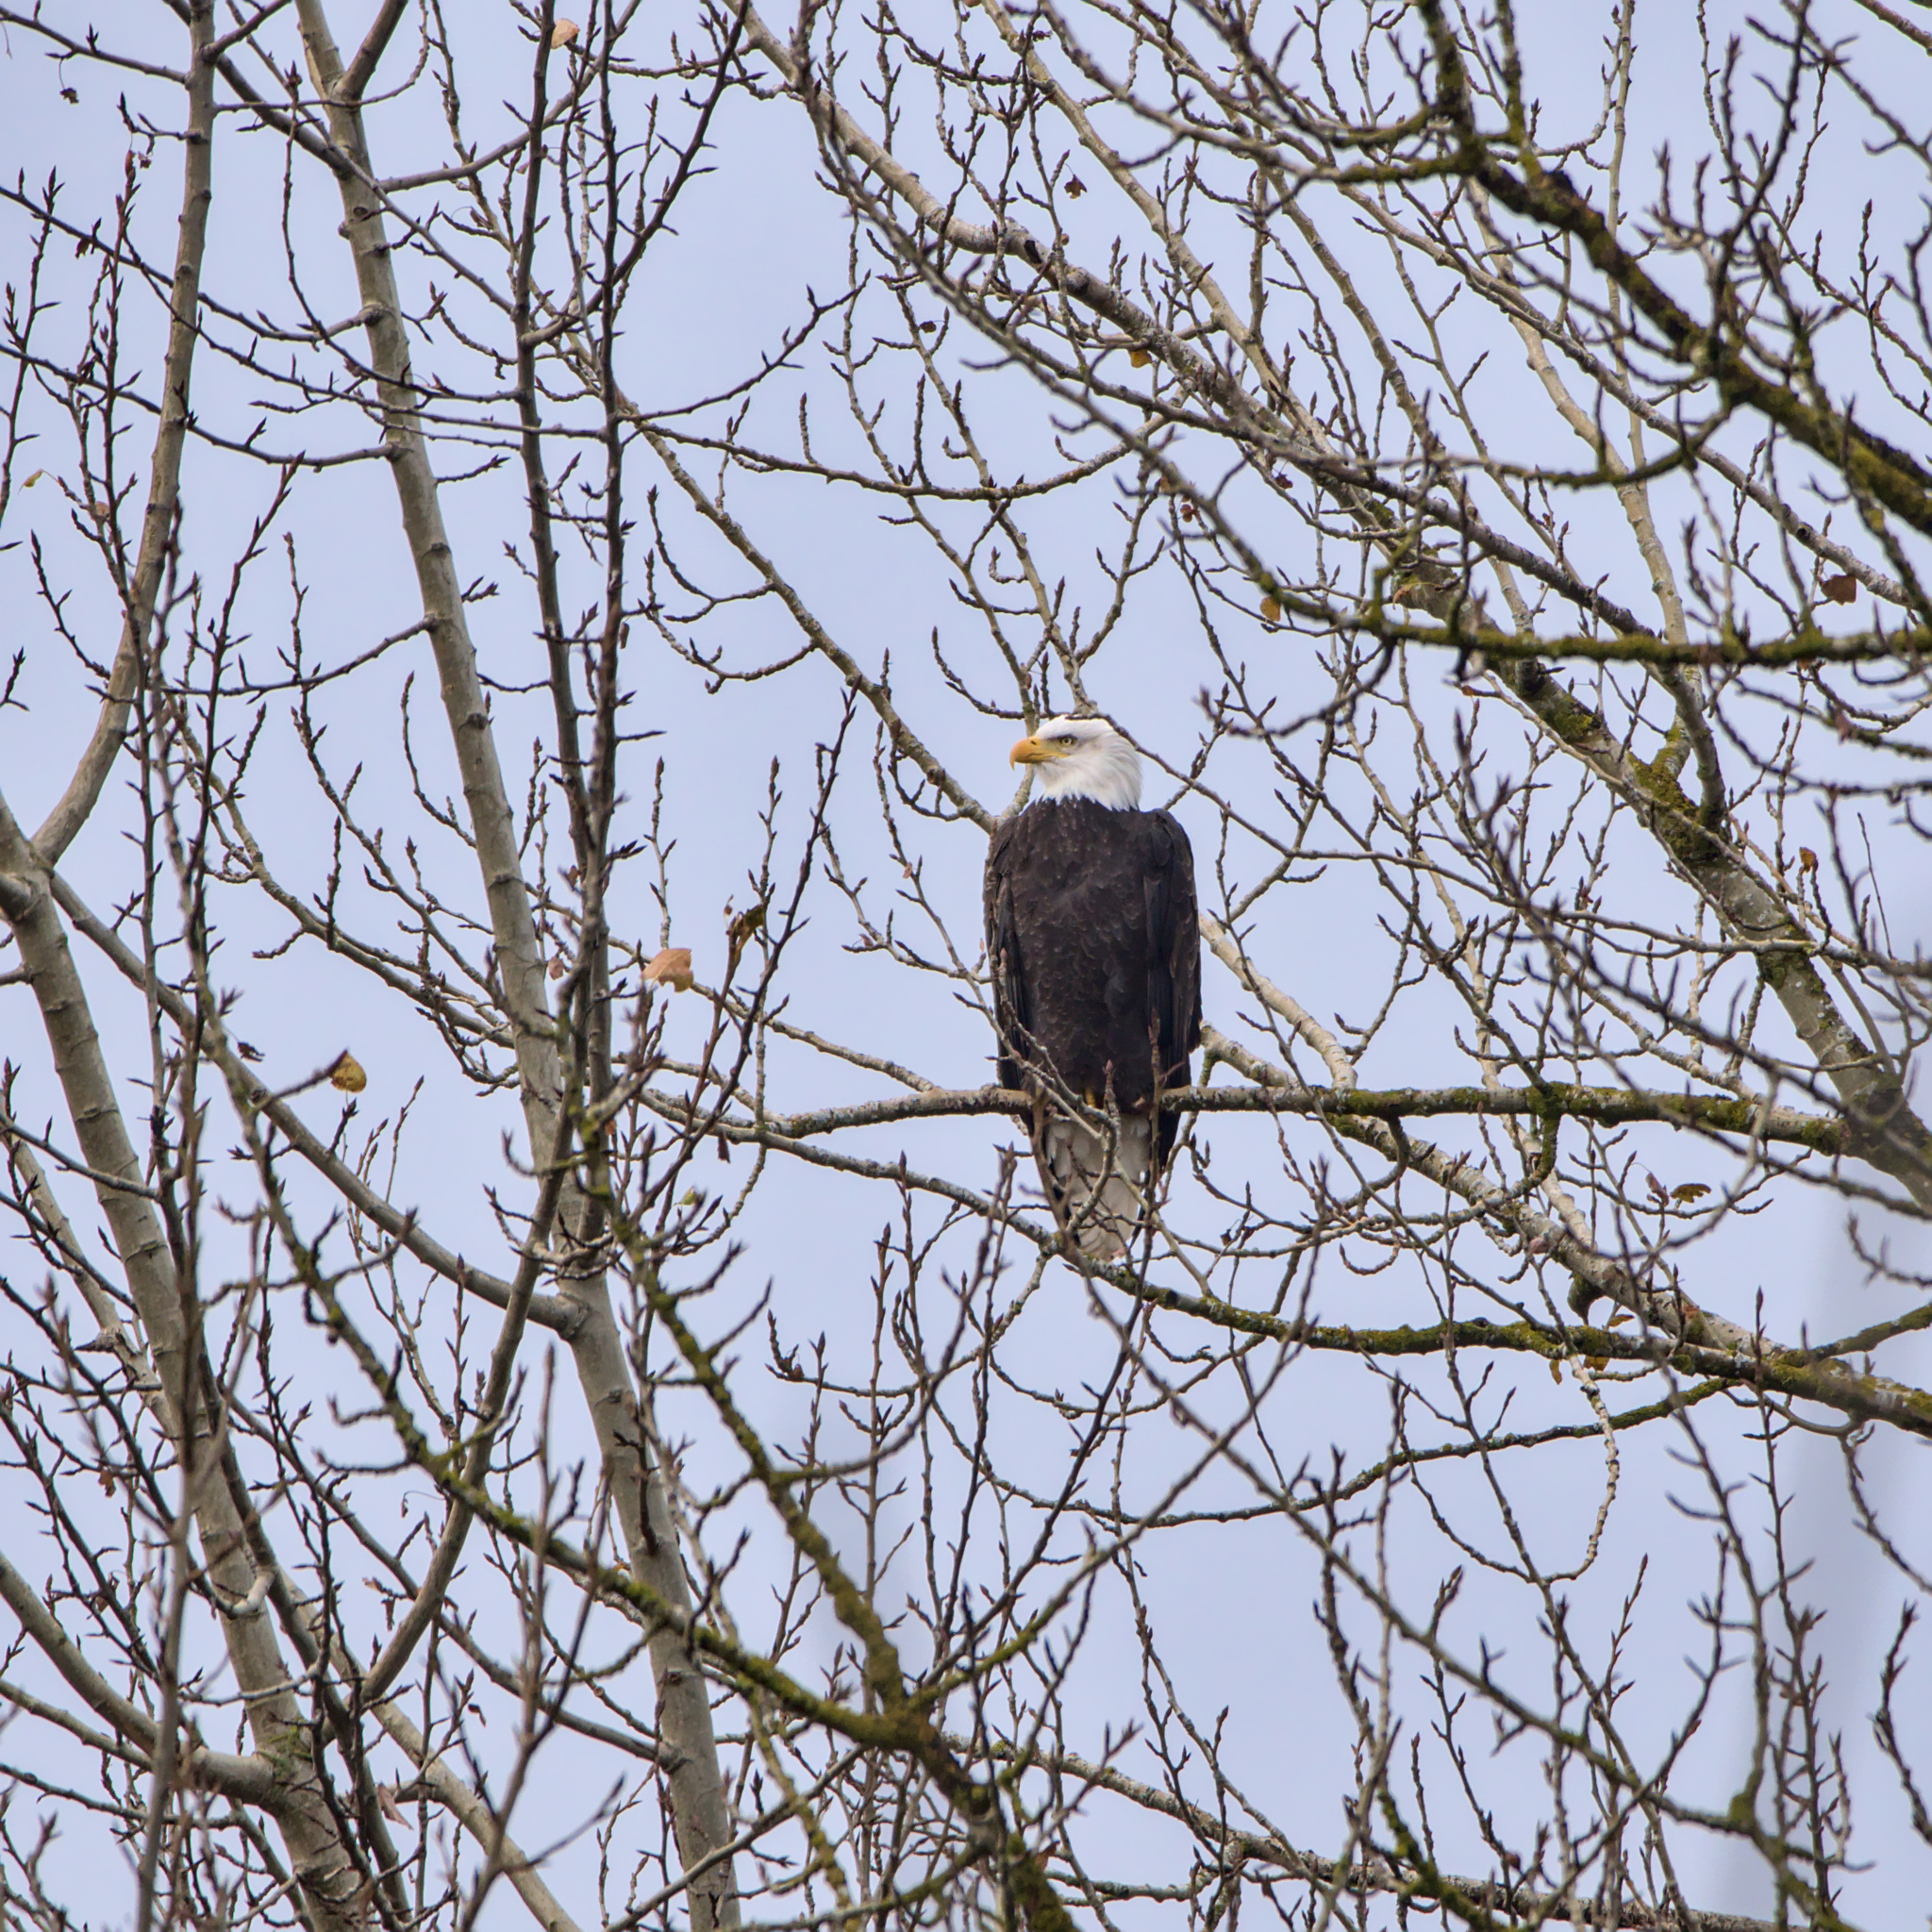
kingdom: Animalia
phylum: Chordata
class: Aves
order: Accipitriformes
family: Accipitridae
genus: Haliaeetus
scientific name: Haliaeetus leucocephalus
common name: Bald eagle
